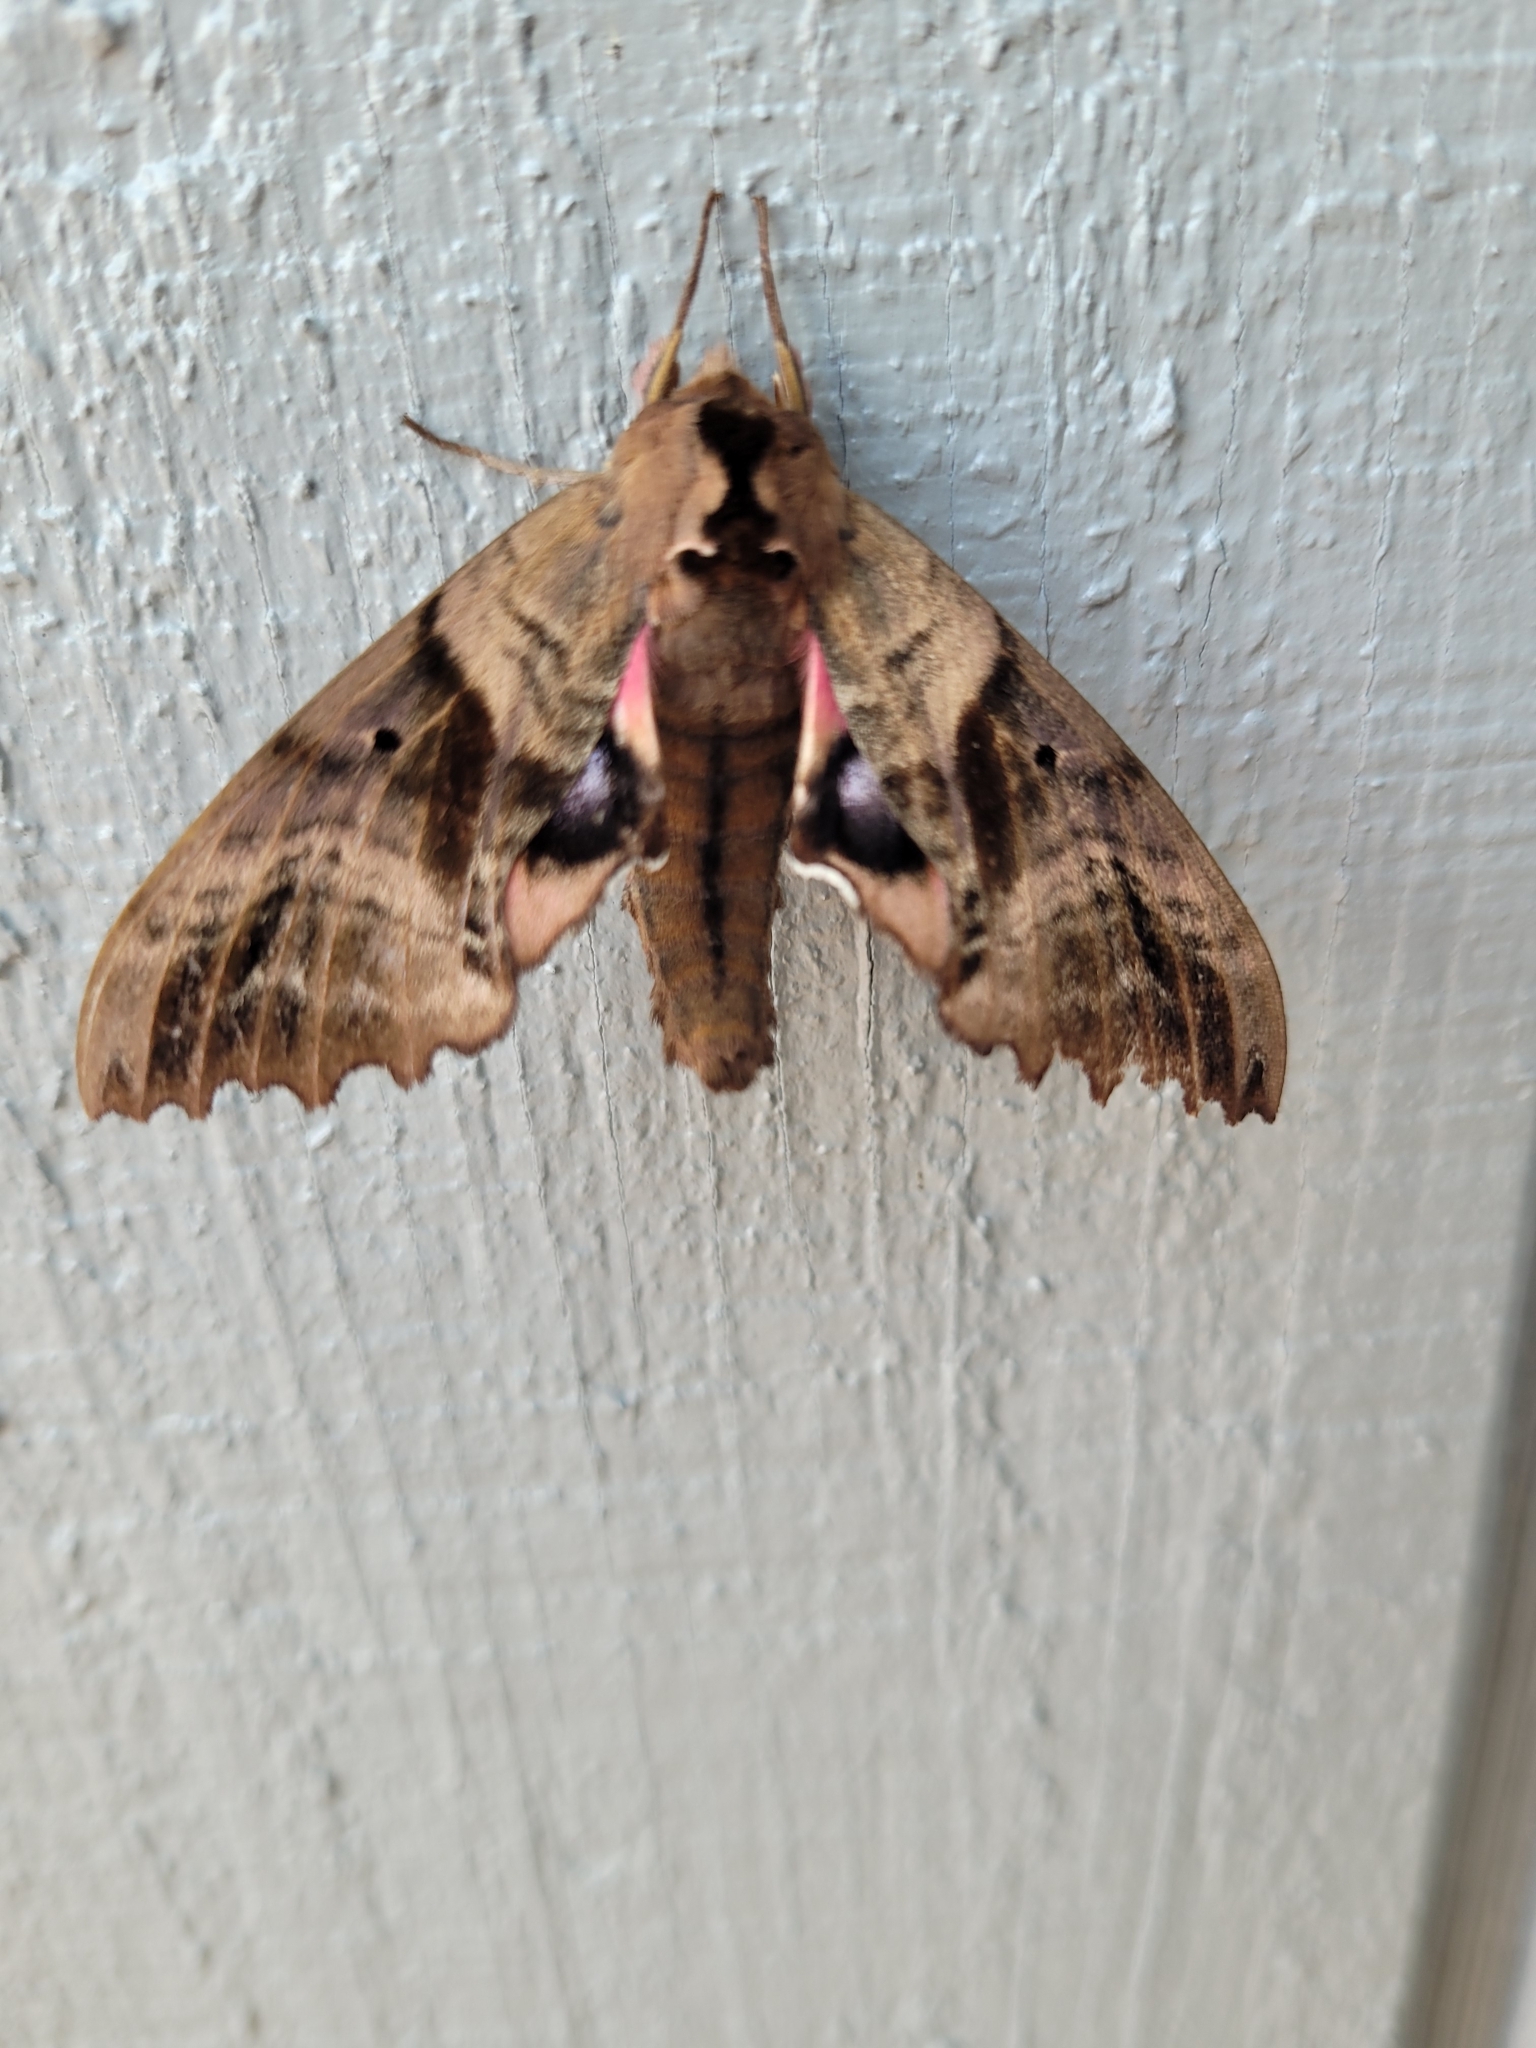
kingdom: Animalia
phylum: Arthropoda
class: Insecta
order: Lepidoptera
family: Sphingidae
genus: Paonias
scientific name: Paonias excaecata
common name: Blind-eyed sphinx
